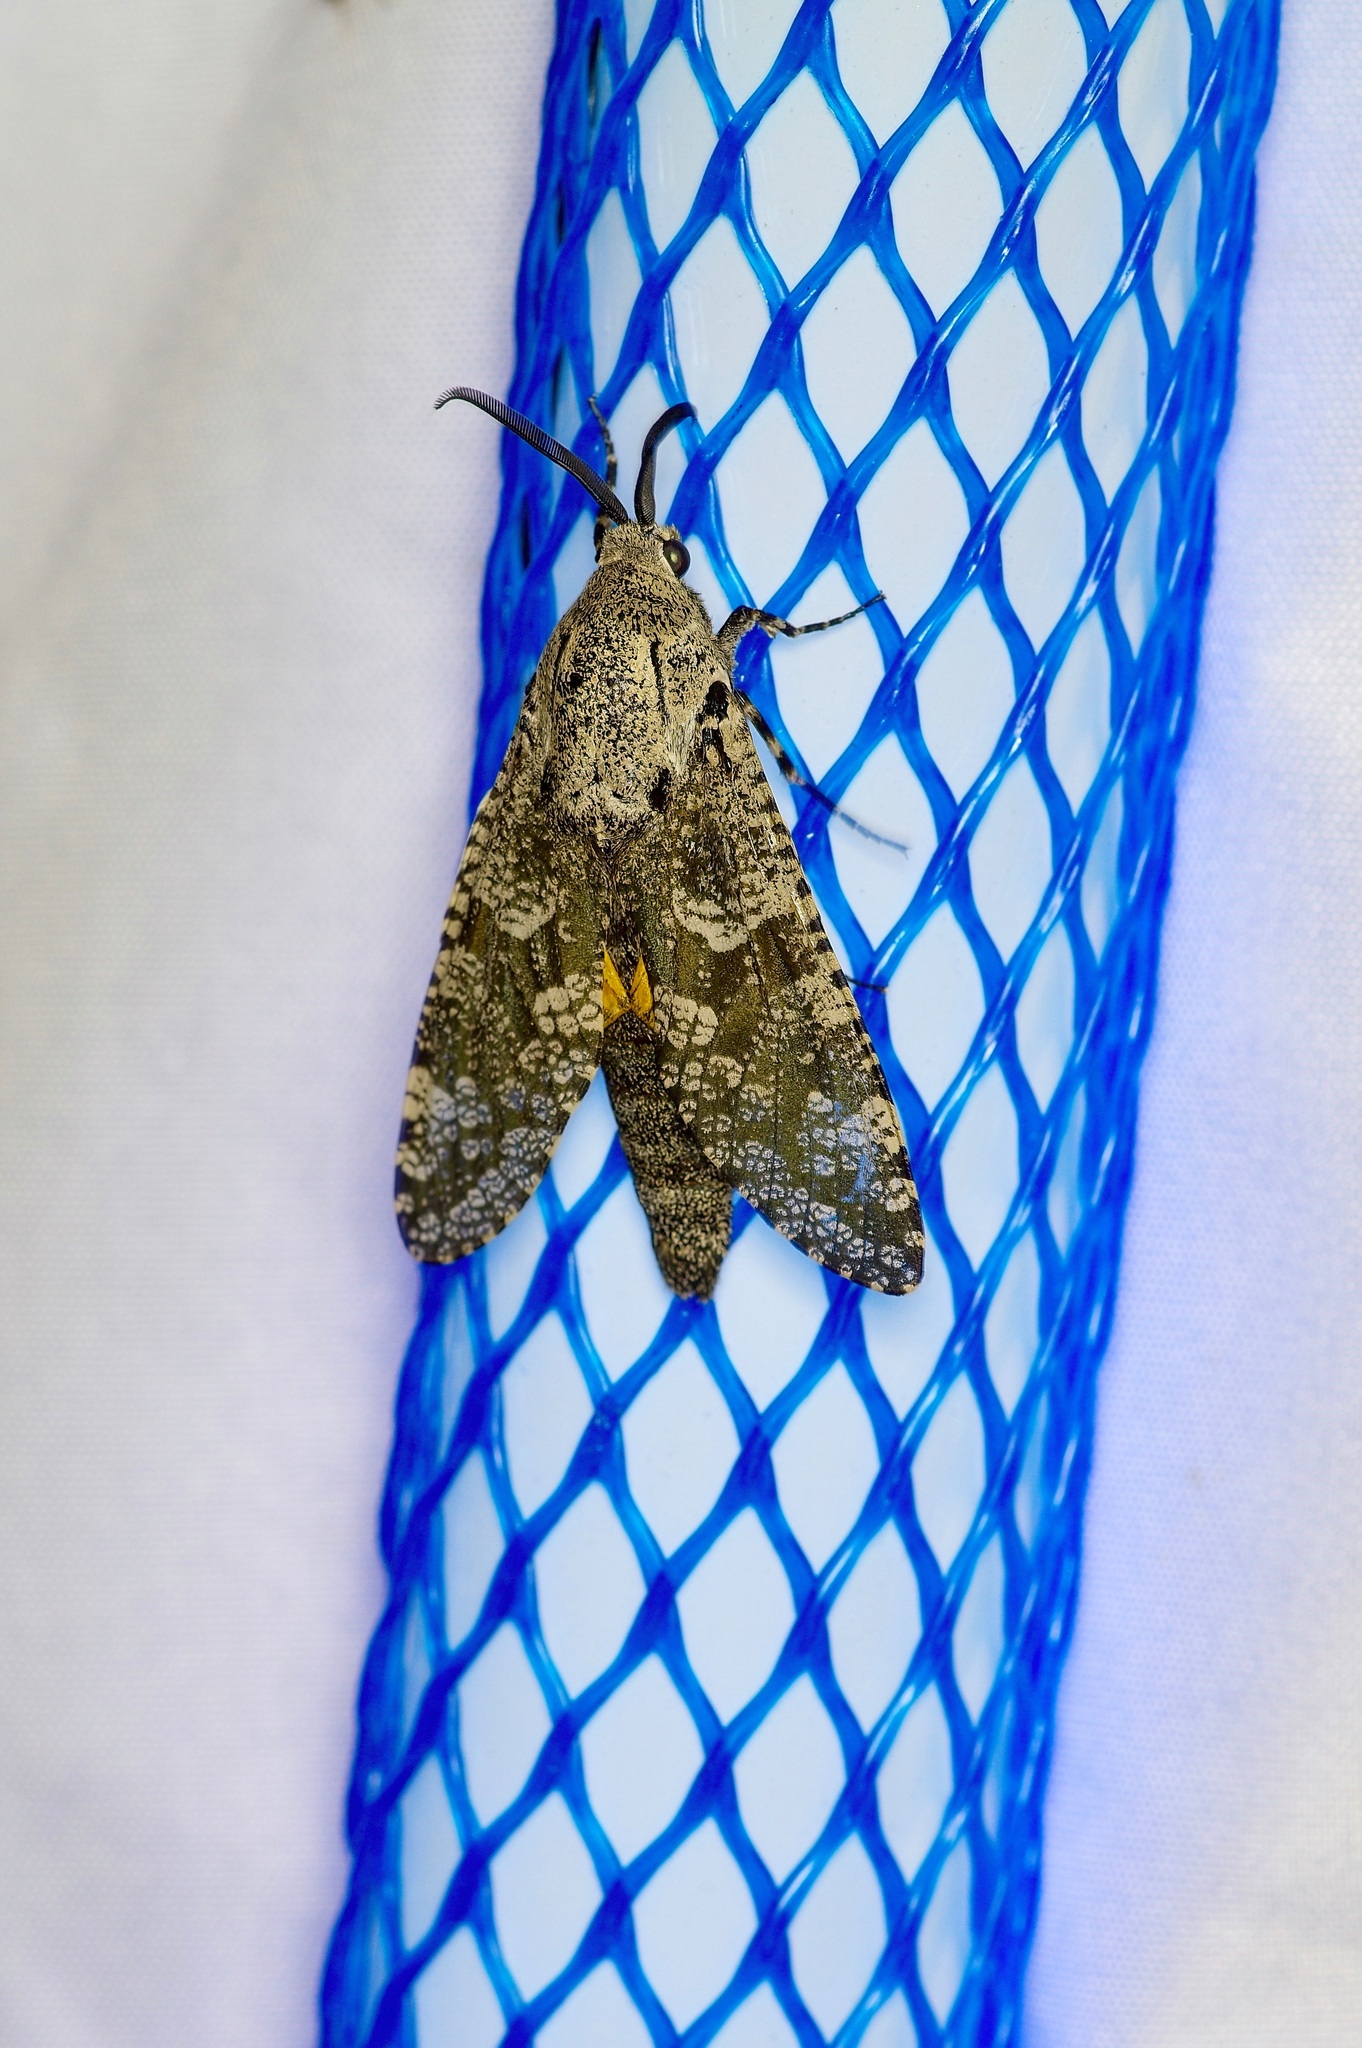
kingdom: Animalia
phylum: Arthropoda
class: Insecta
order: Lepidoptera
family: Cossidae
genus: Prionoxystus
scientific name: Prionoxystus robiniae
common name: Carpenterworm
